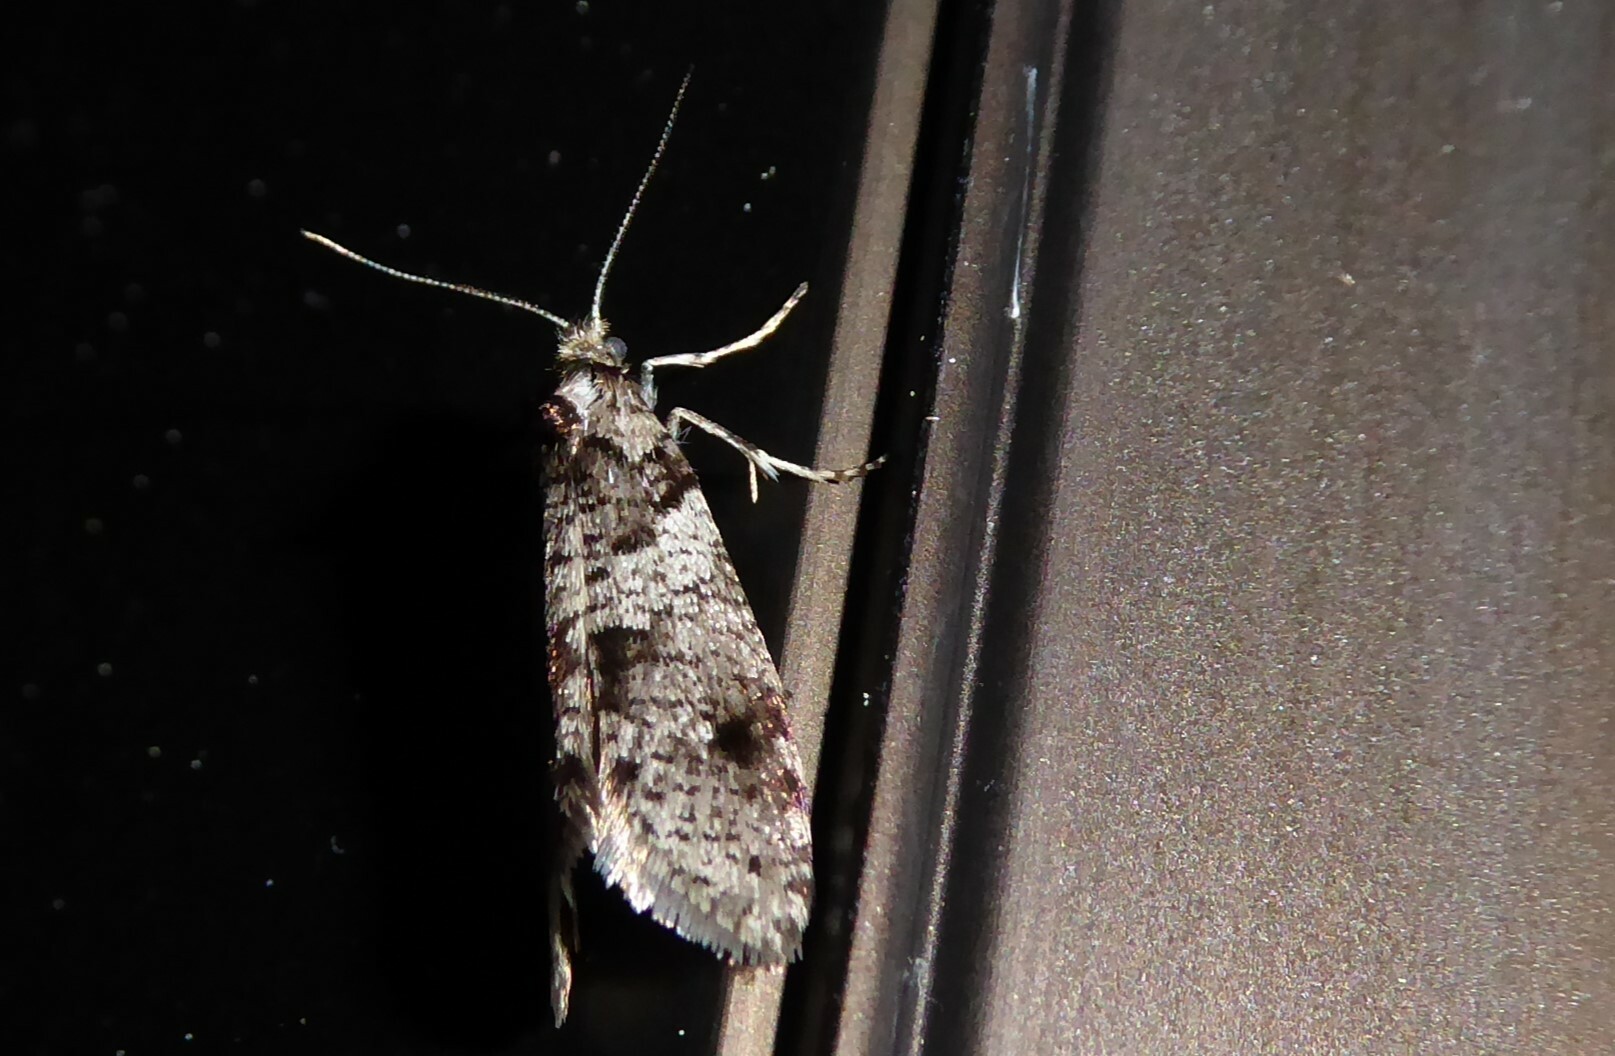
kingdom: Animalia
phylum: Arthropoda
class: Insecta
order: Lepidoptera
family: Psychidae
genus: Lepidoscia
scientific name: Lepidoscia heliochares
